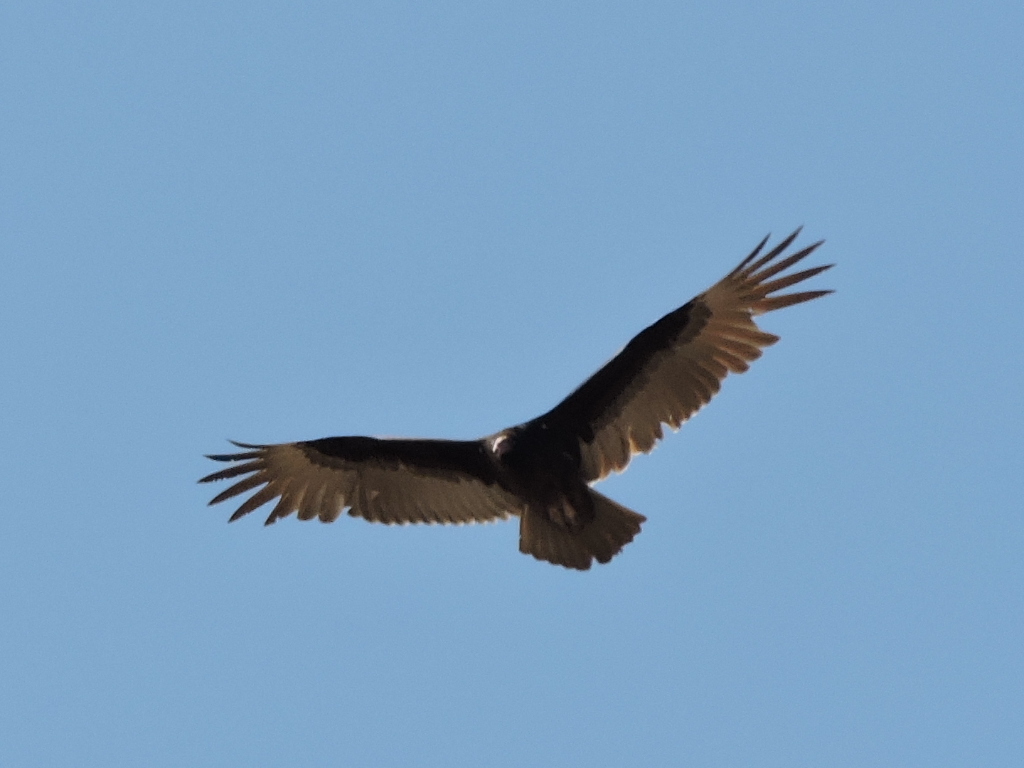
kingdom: Animalia
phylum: Chordata
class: Aves
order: Accipitriformes
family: Cathartidae
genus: Cathartes
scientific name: Cathartes aura
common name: Turkey vulture
